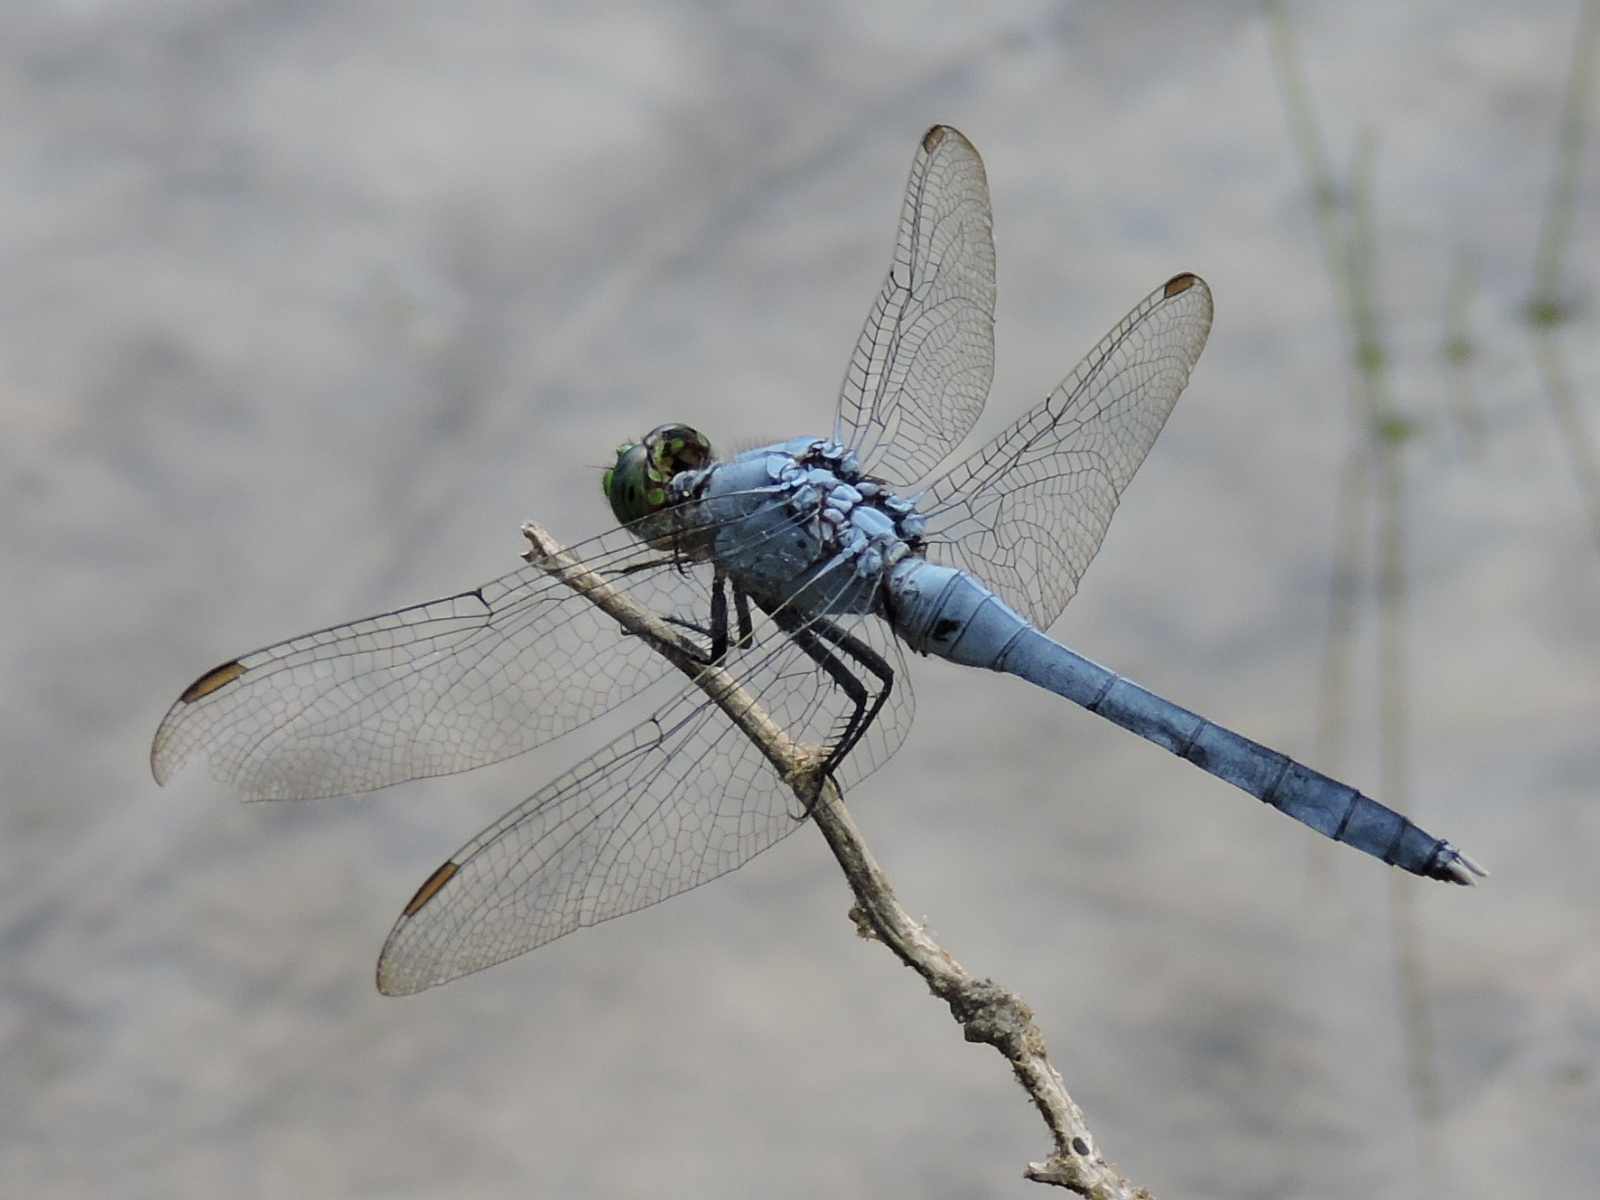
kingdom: Animalia
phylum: Arthropoda
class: Insecta
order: Odonata
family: Libellulidae
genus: Erythemis
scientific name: Erythemis simplicicollis
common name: Eastern pondhawk
